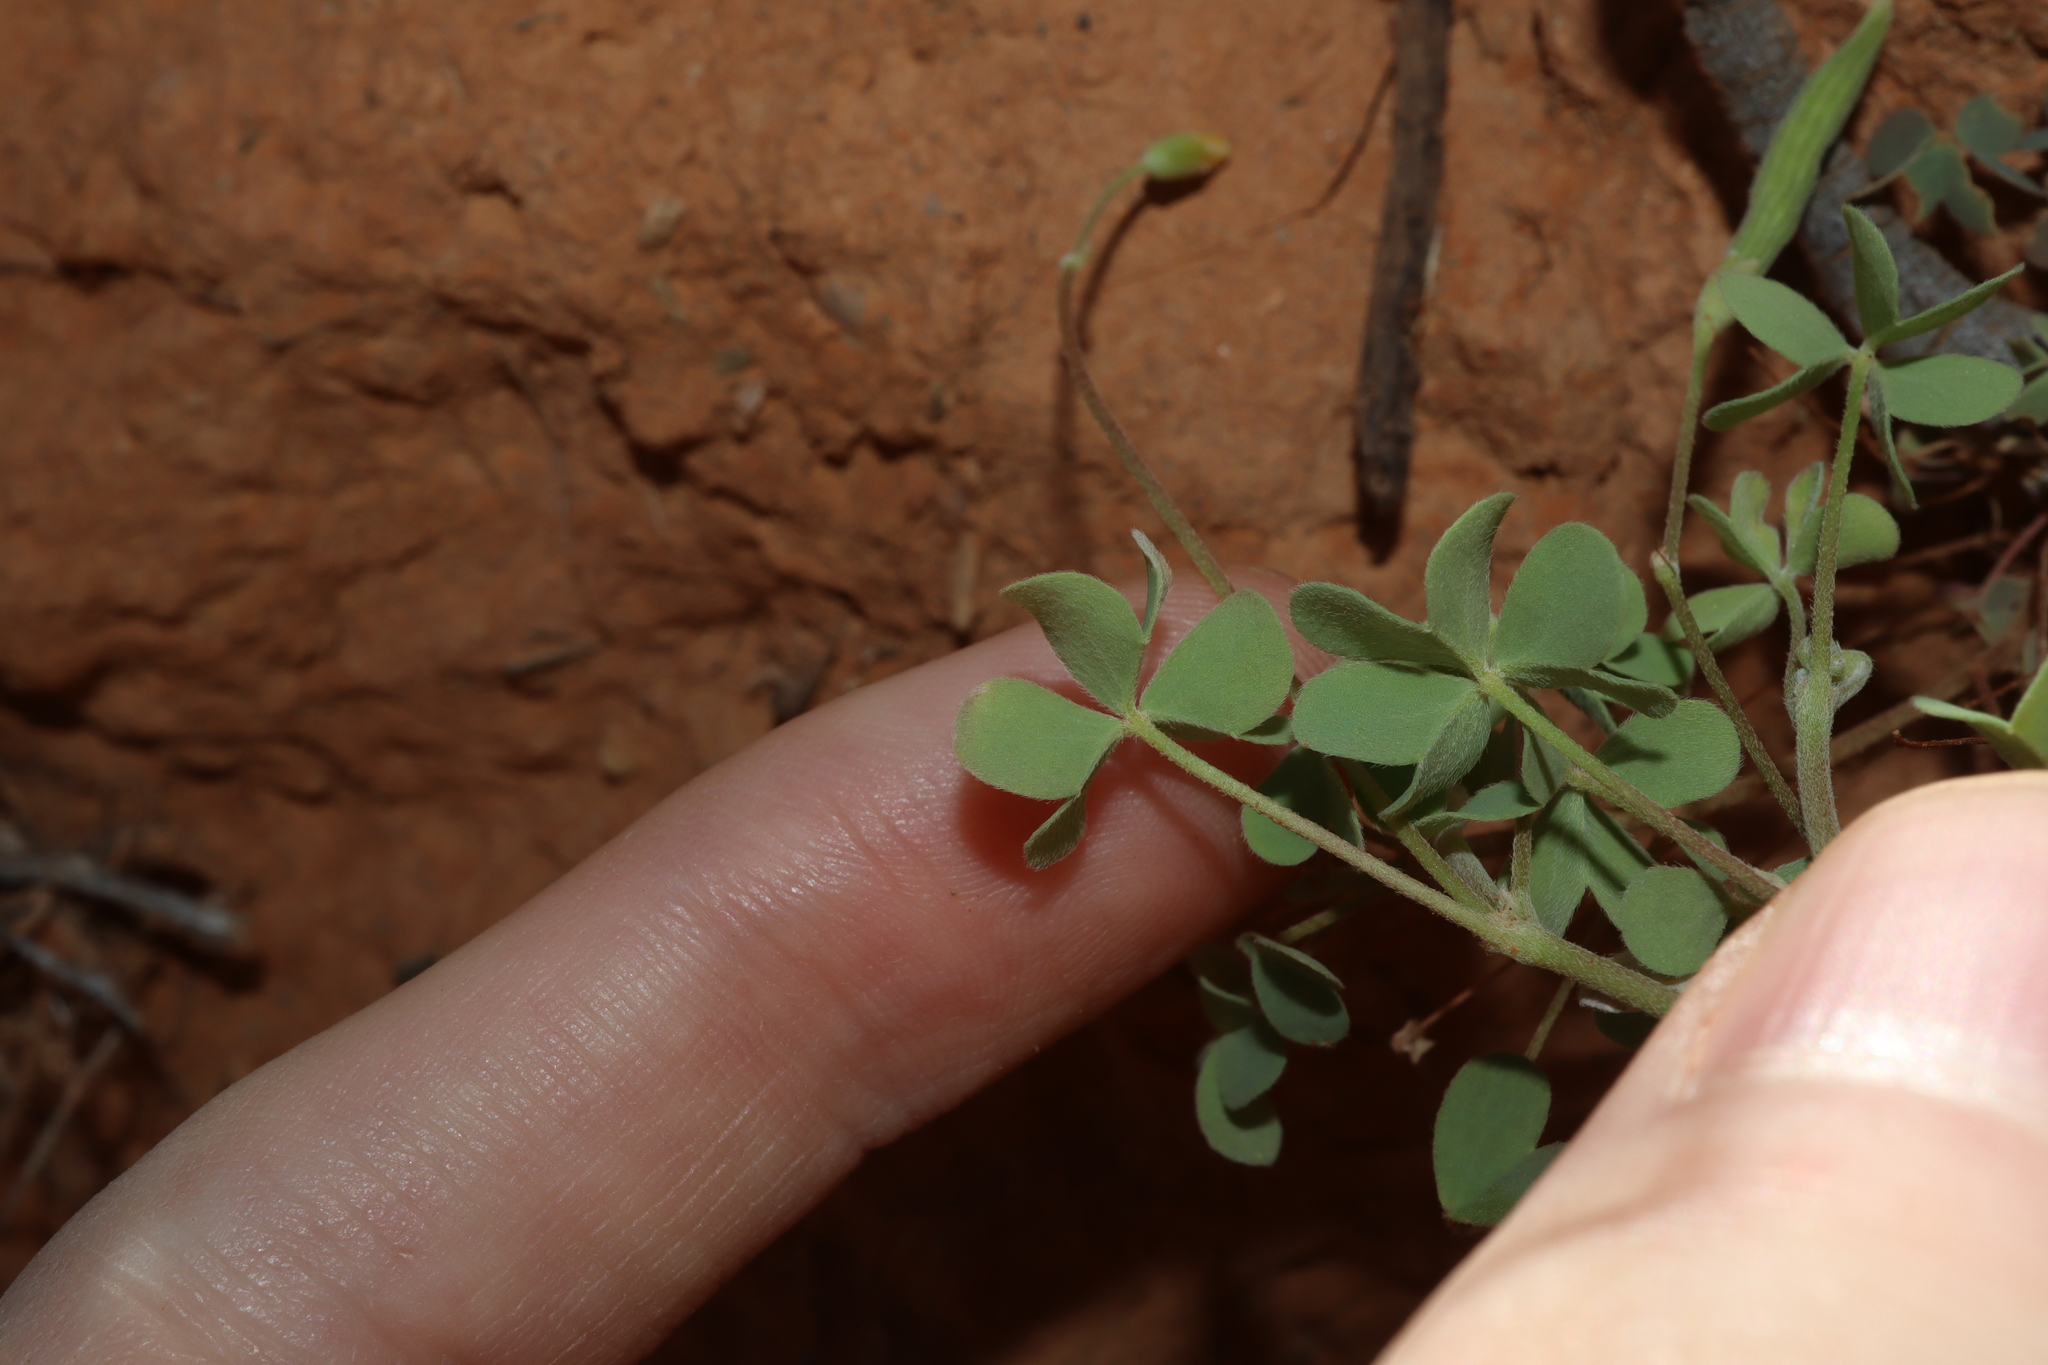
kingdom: Plantae
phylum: Tracheophyta
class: Magnoliopsida
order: Oxalidales
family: Oxalidaceae
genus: Oxalis
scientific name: Oxalis perennans
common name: Woody-rooted yellow-sorrel
